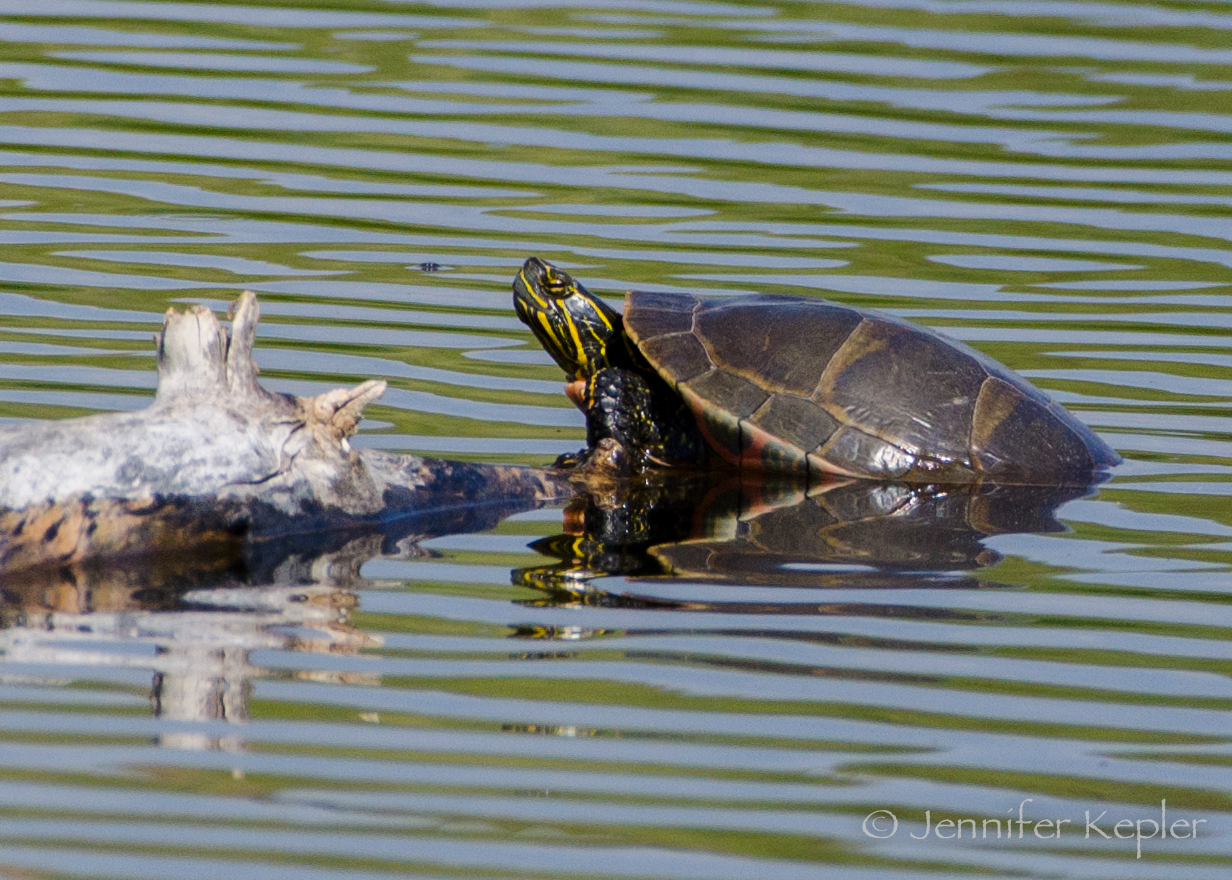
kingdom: Animalia
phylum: Chordata
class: Testudines
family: Emydidae
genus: Chrysemys
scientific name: Chrysemys picta
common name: Painted turtle
